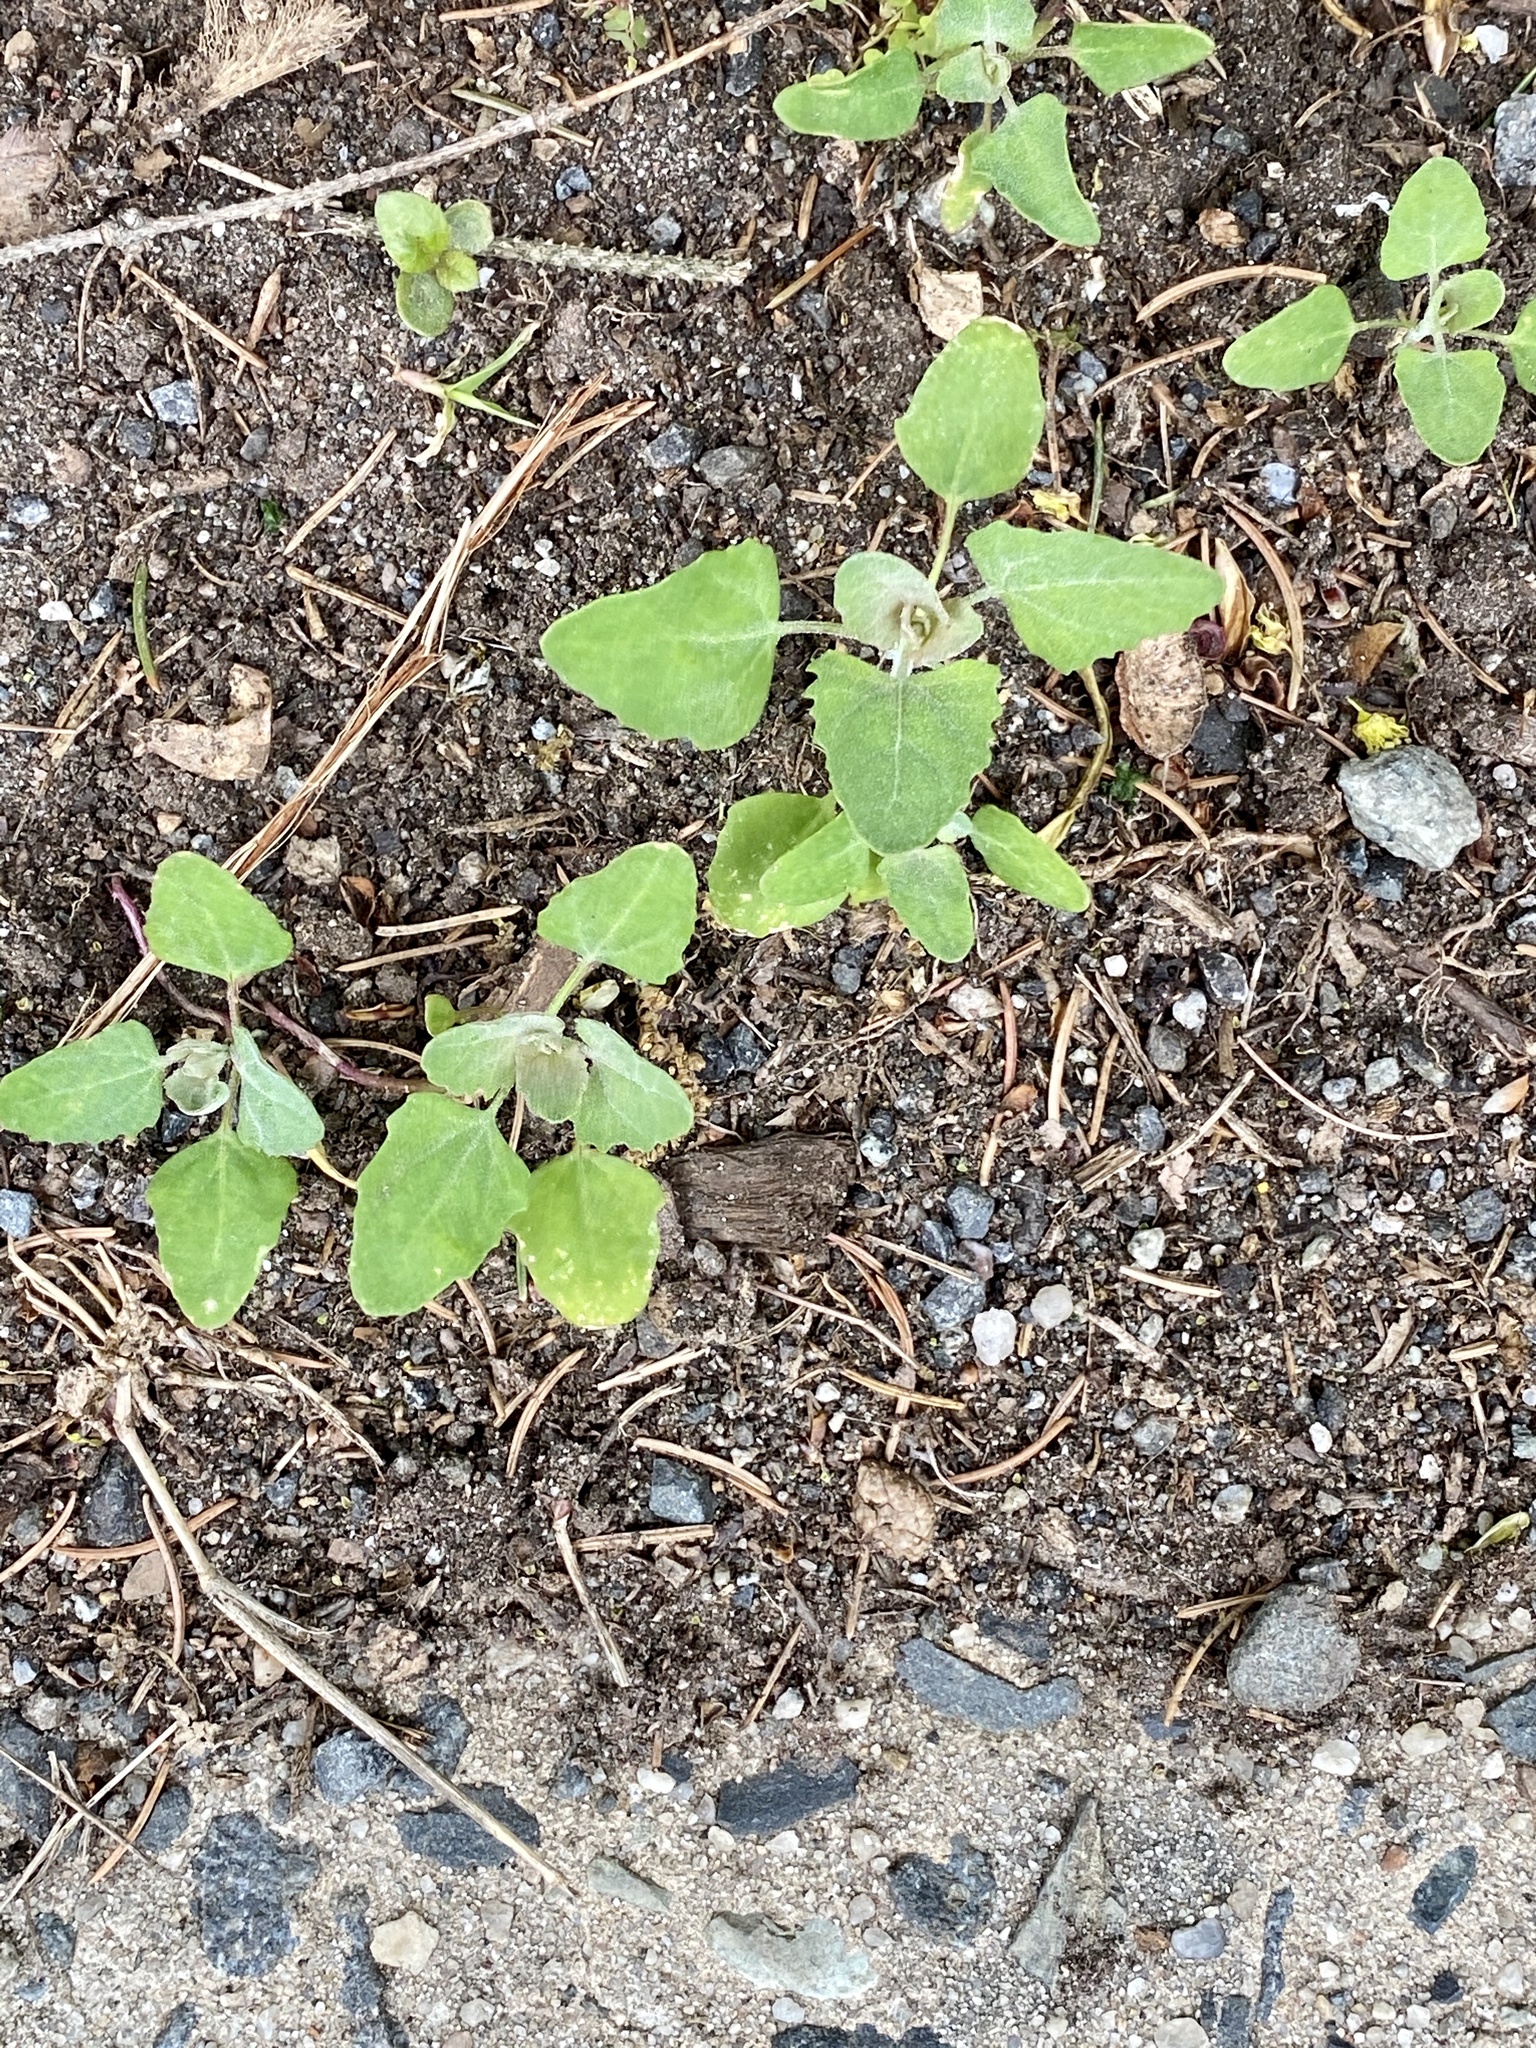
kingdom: Plantae
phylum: Tracheophyta
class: Magnoliopsida
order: Caryophyllales
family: Amaranthaceae
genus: Chenopodium
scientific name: Chenopodium album
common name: Fat-hen
